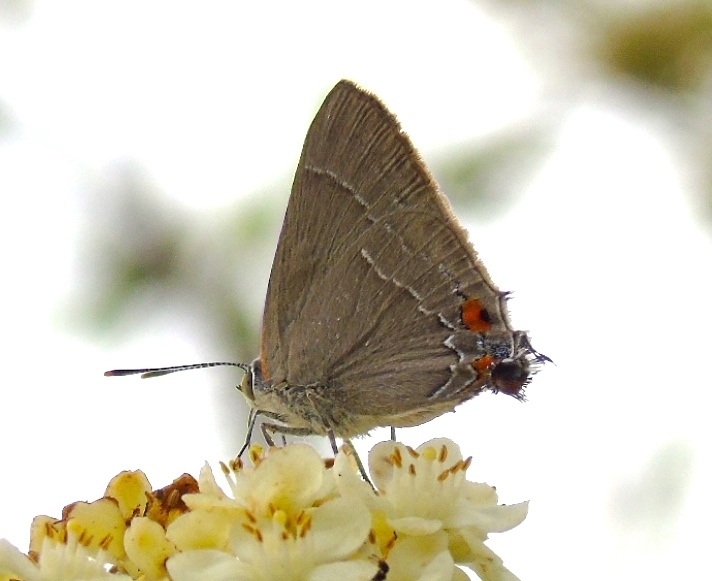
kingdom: Animalia
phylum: Arthropoda
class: Insecta
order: Lepidoptera
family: Lycaenidae
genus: Rekoa
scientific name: Rekoa
